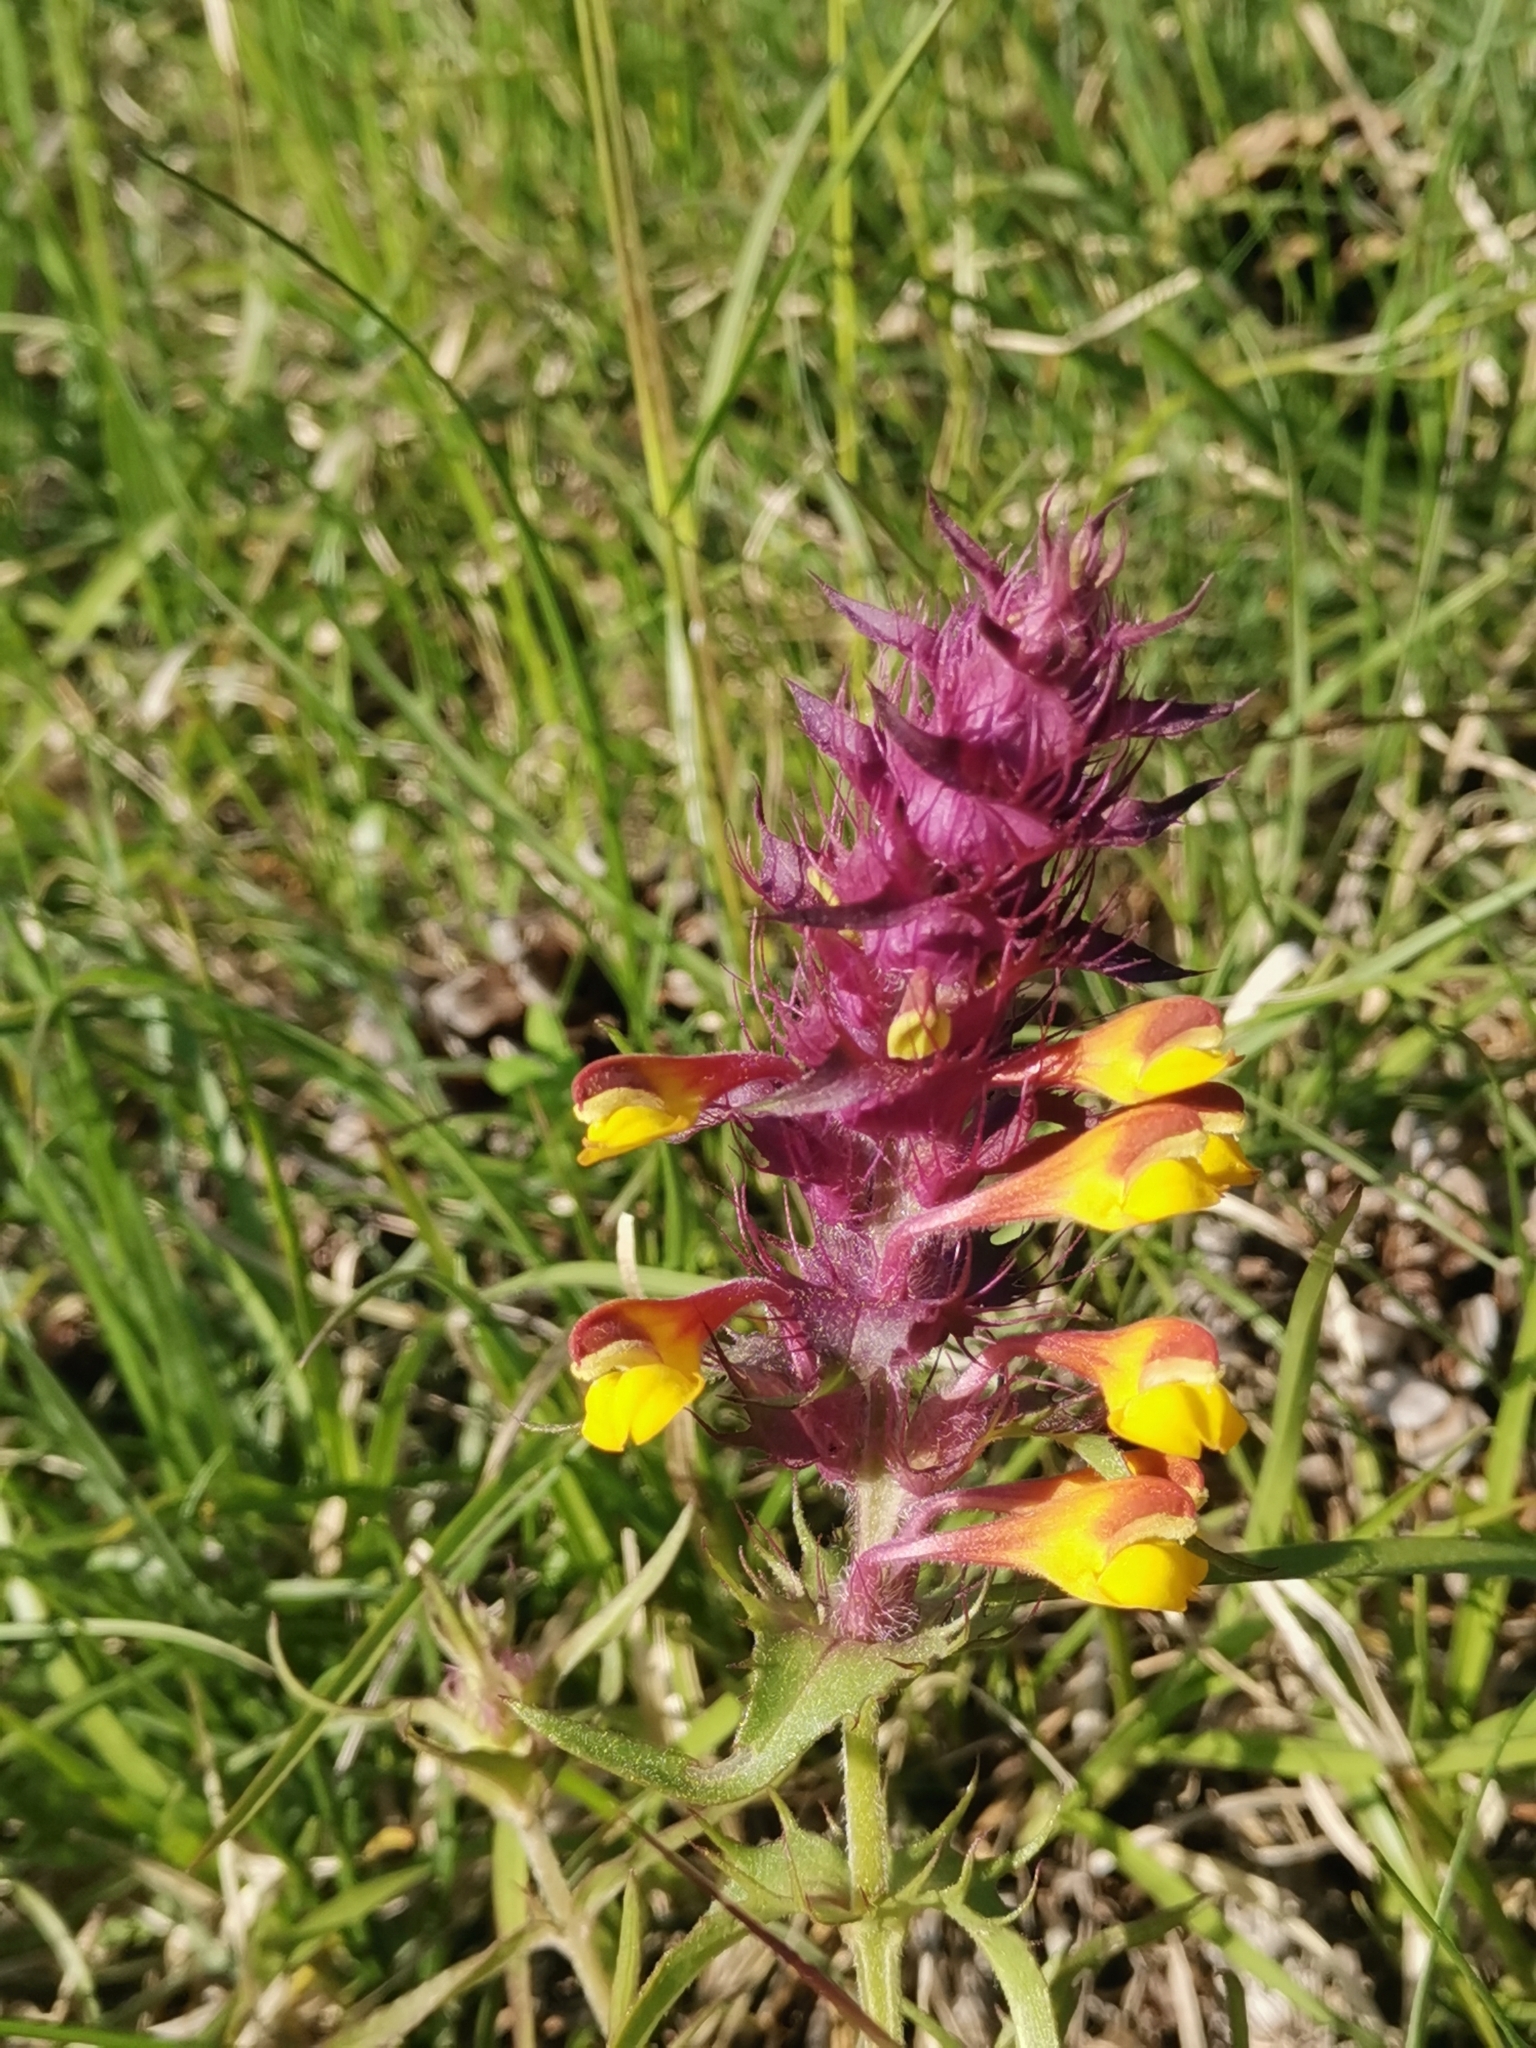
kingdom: Plantae
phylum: Tracheophyta
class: Magnoliopsida
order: Lamiales
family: Orobanchaceae
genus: Melampyrum
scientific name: Melampyrum barbatum
